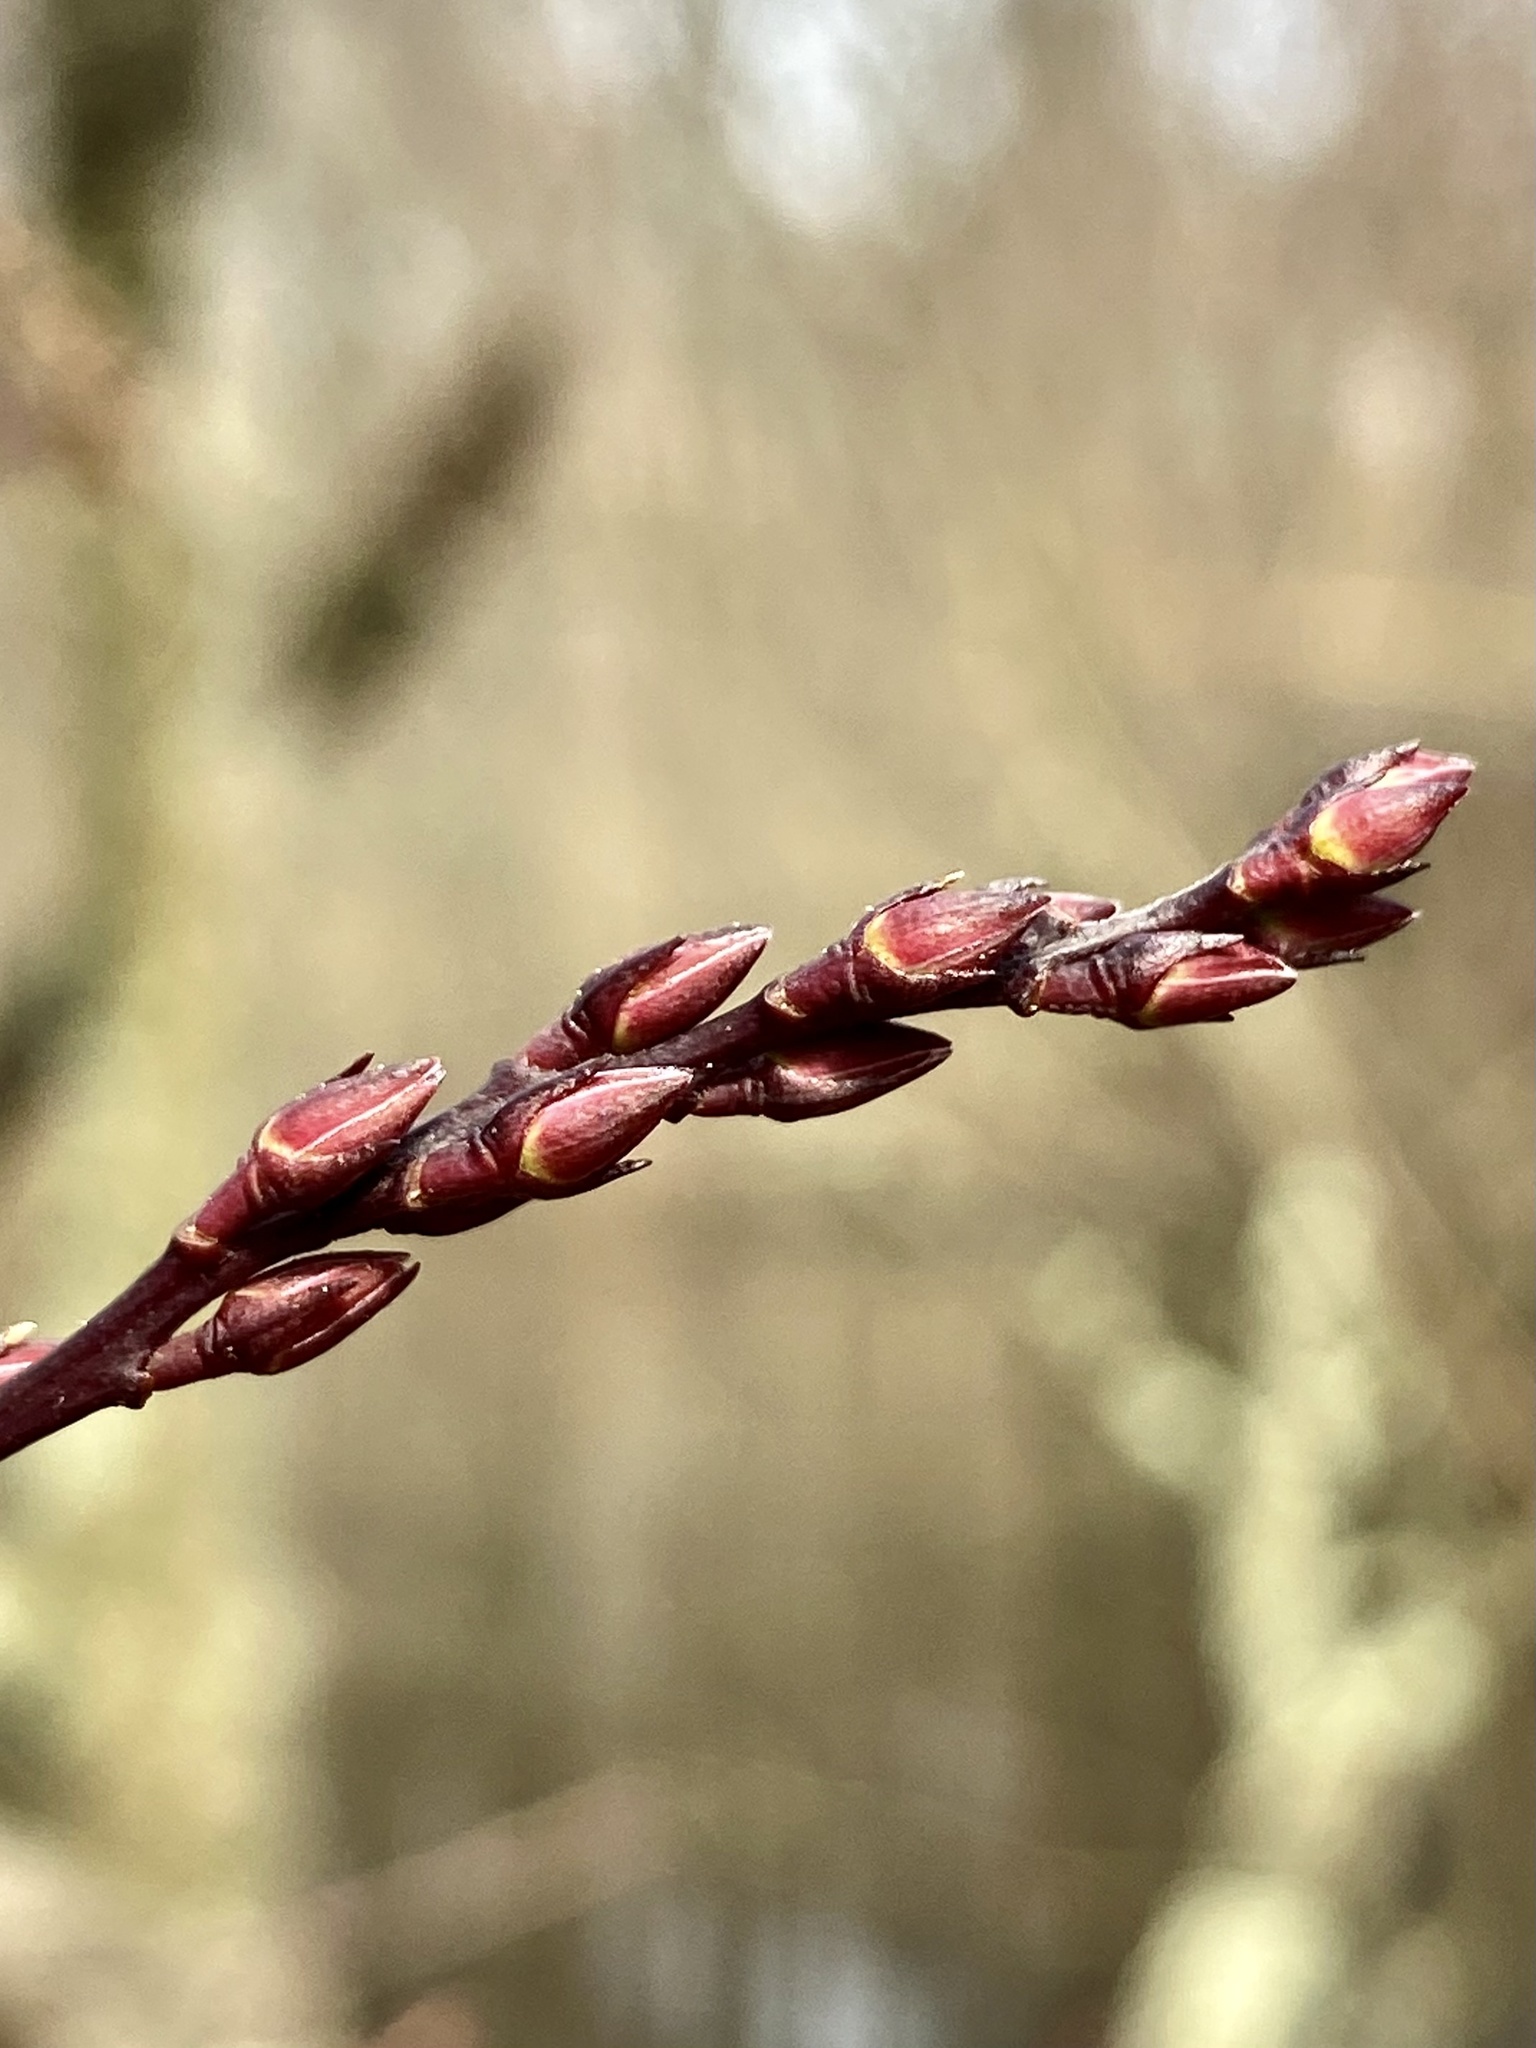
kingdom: Plantae
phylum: Tracheophyta
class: Magnoliopsida
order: Ericales
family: Ericaceae
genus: Eubotrys
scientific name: Eubotrys racemosa
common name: Fetterbush
